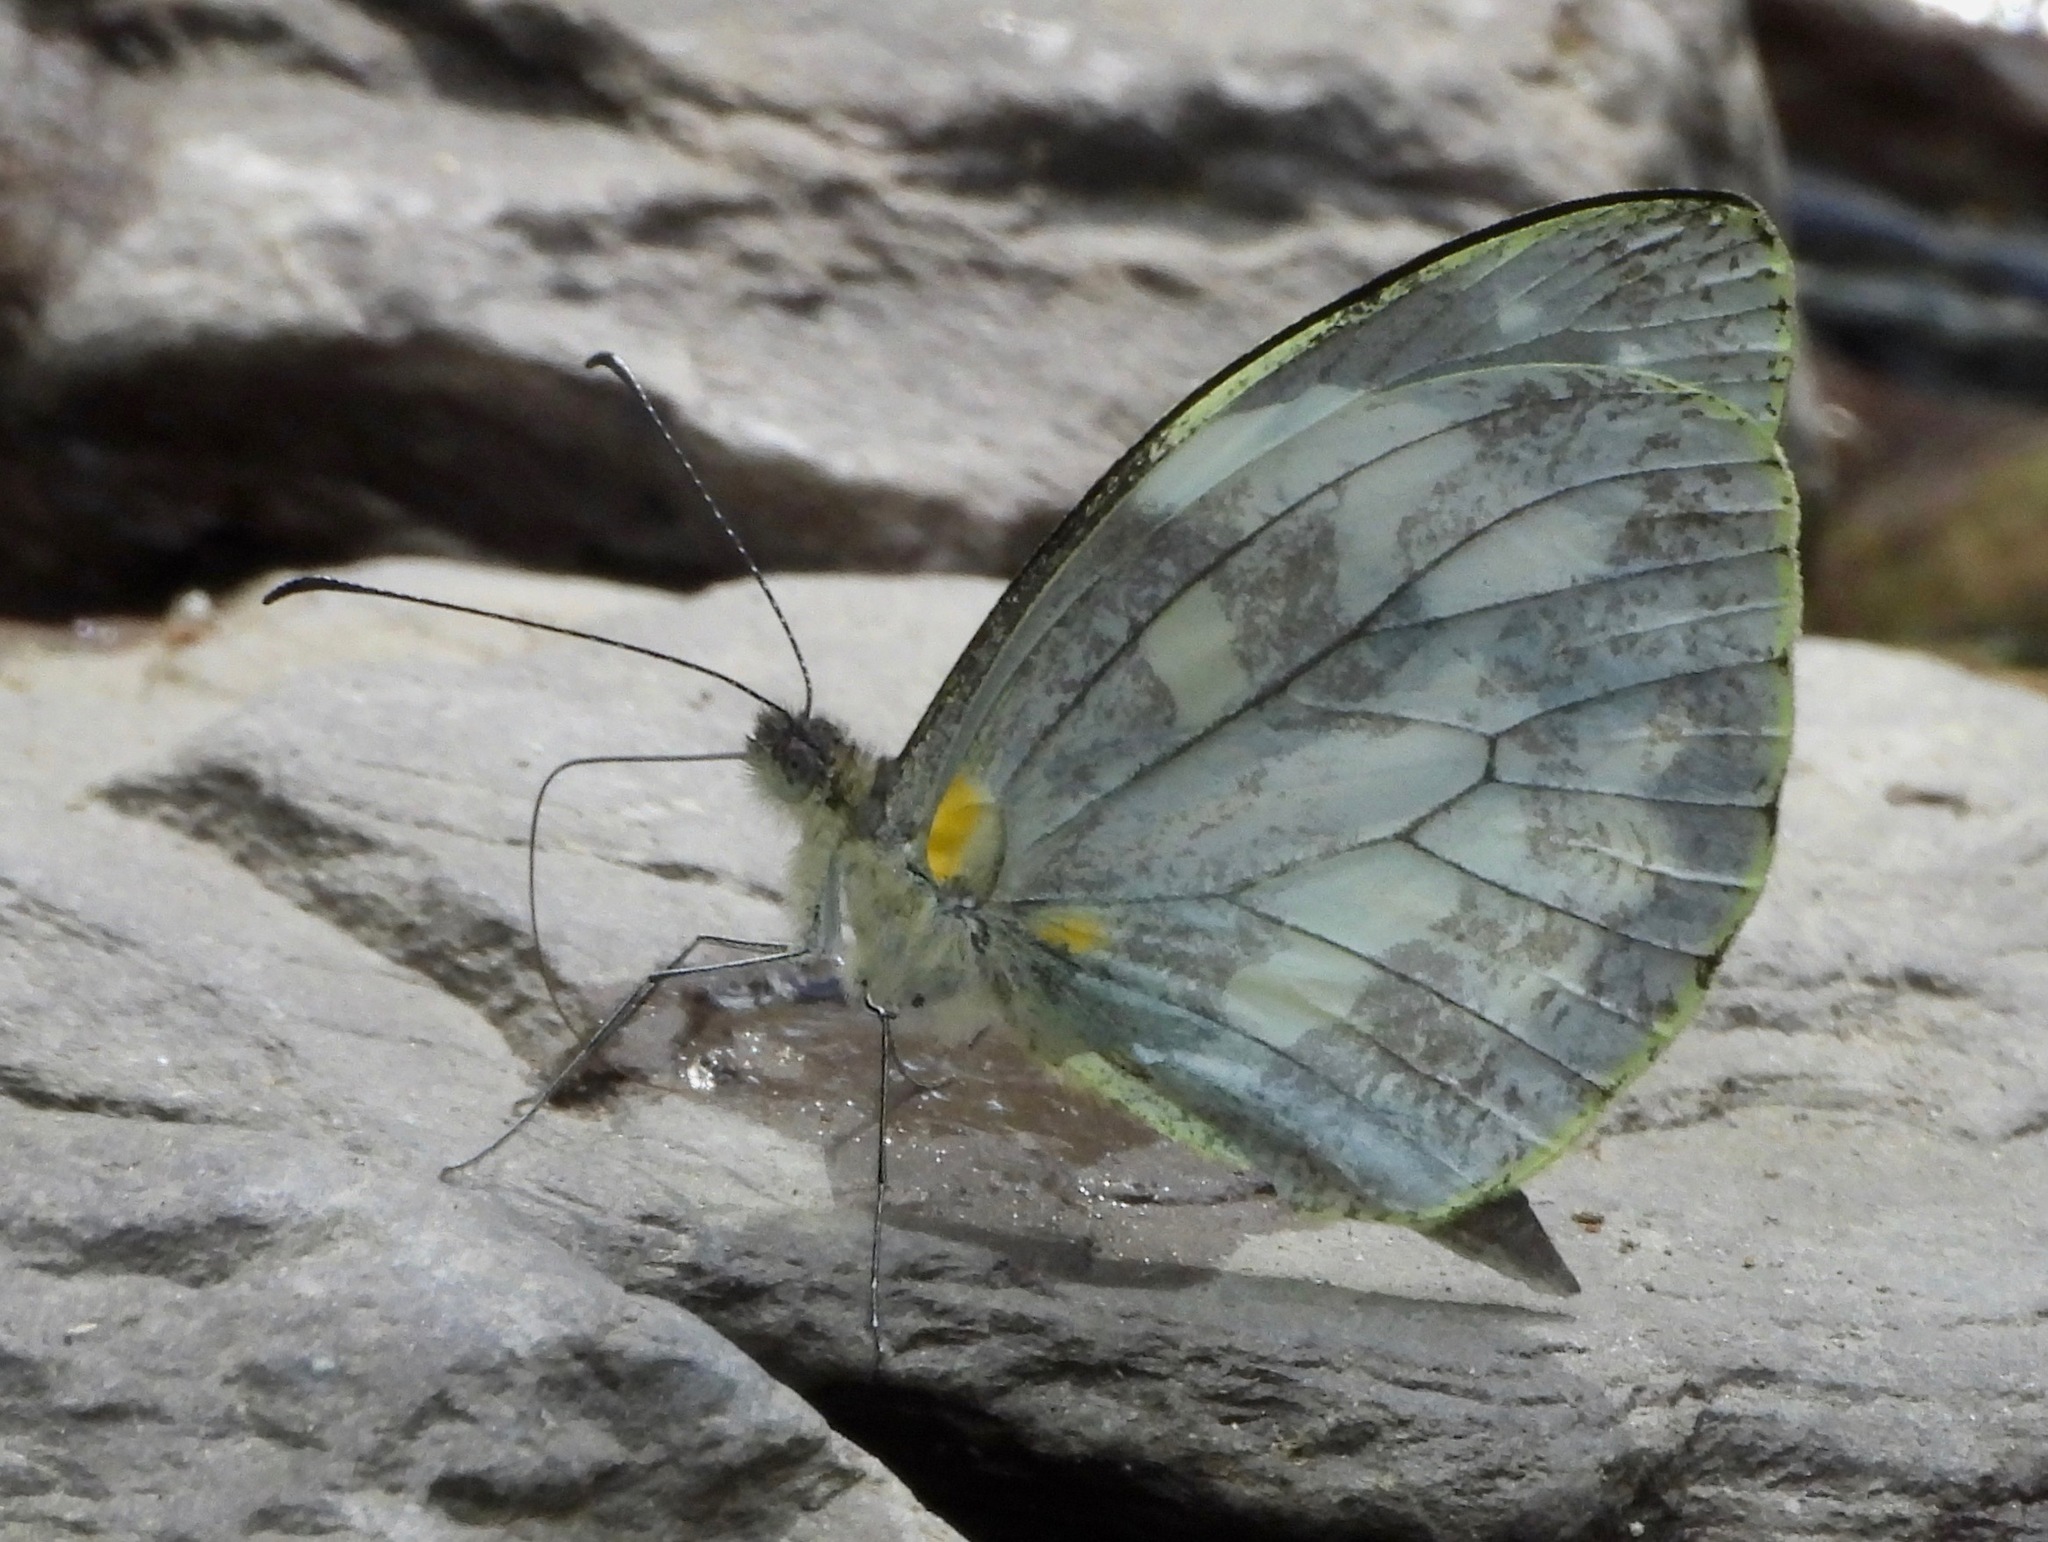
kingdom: Animalia
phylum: Arthropoda
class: Insecta
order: Lepidoptera
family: Pieridae
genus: Dismorphia
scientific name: Dismorphia crisia
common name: Crisia mimic-white
